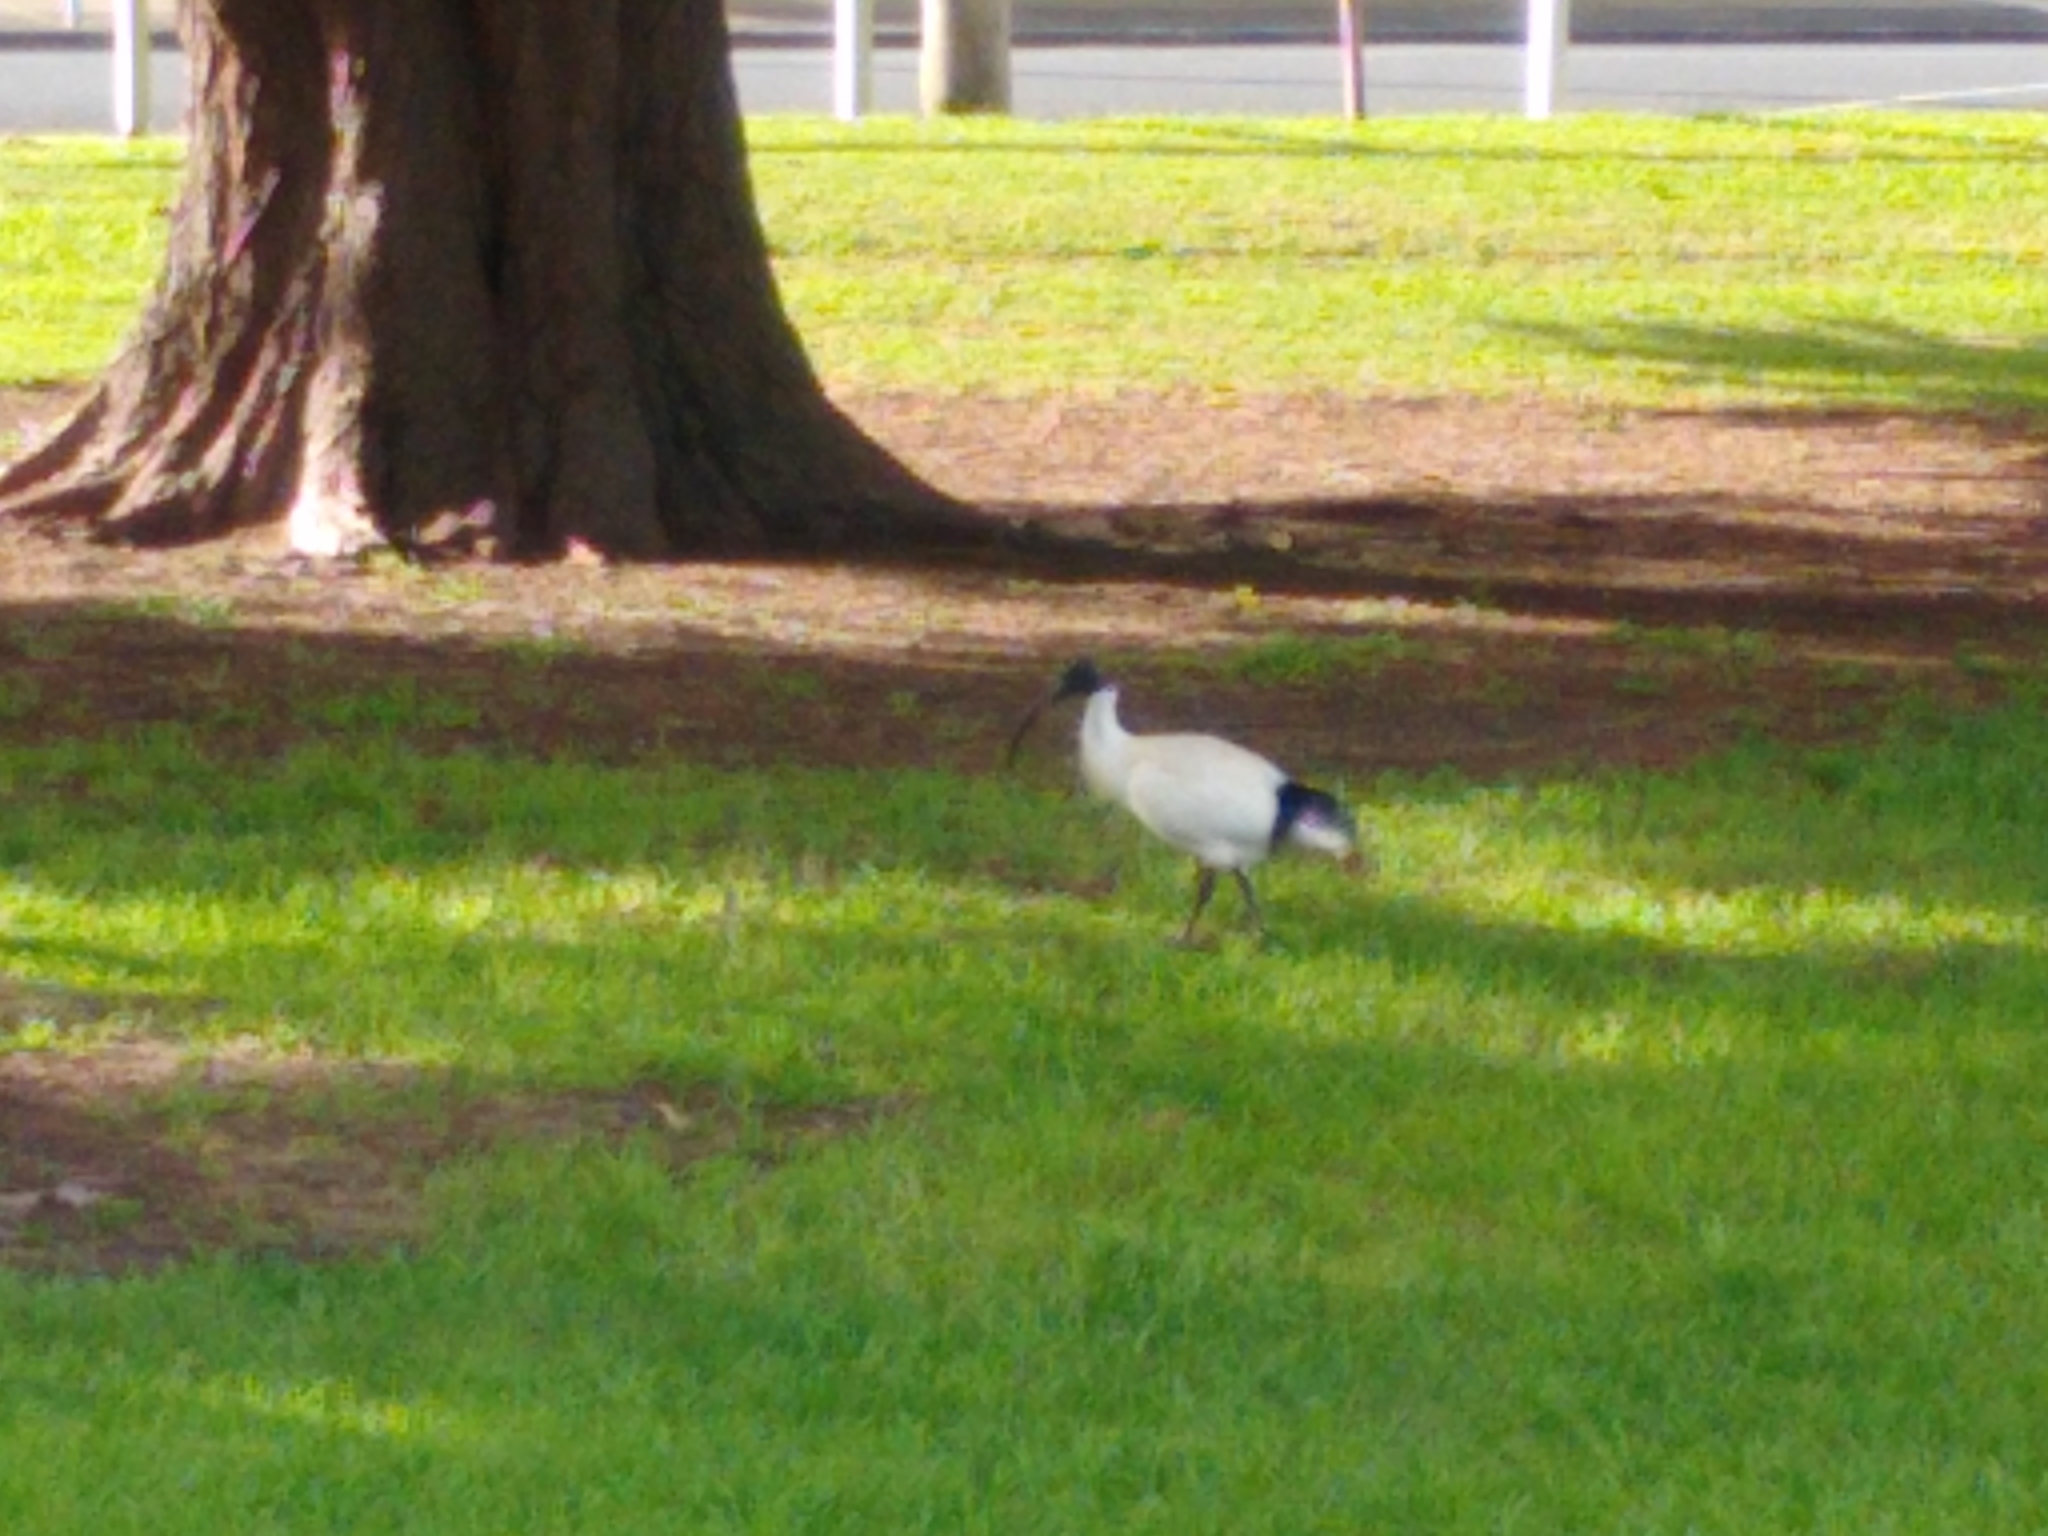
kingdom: Animalia
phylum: Chordata
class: Aves
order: Pelecaniformes
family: Threskiornithidae
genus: Threskiornis
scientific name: Threskiornis molucca
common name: Australian white ibis
